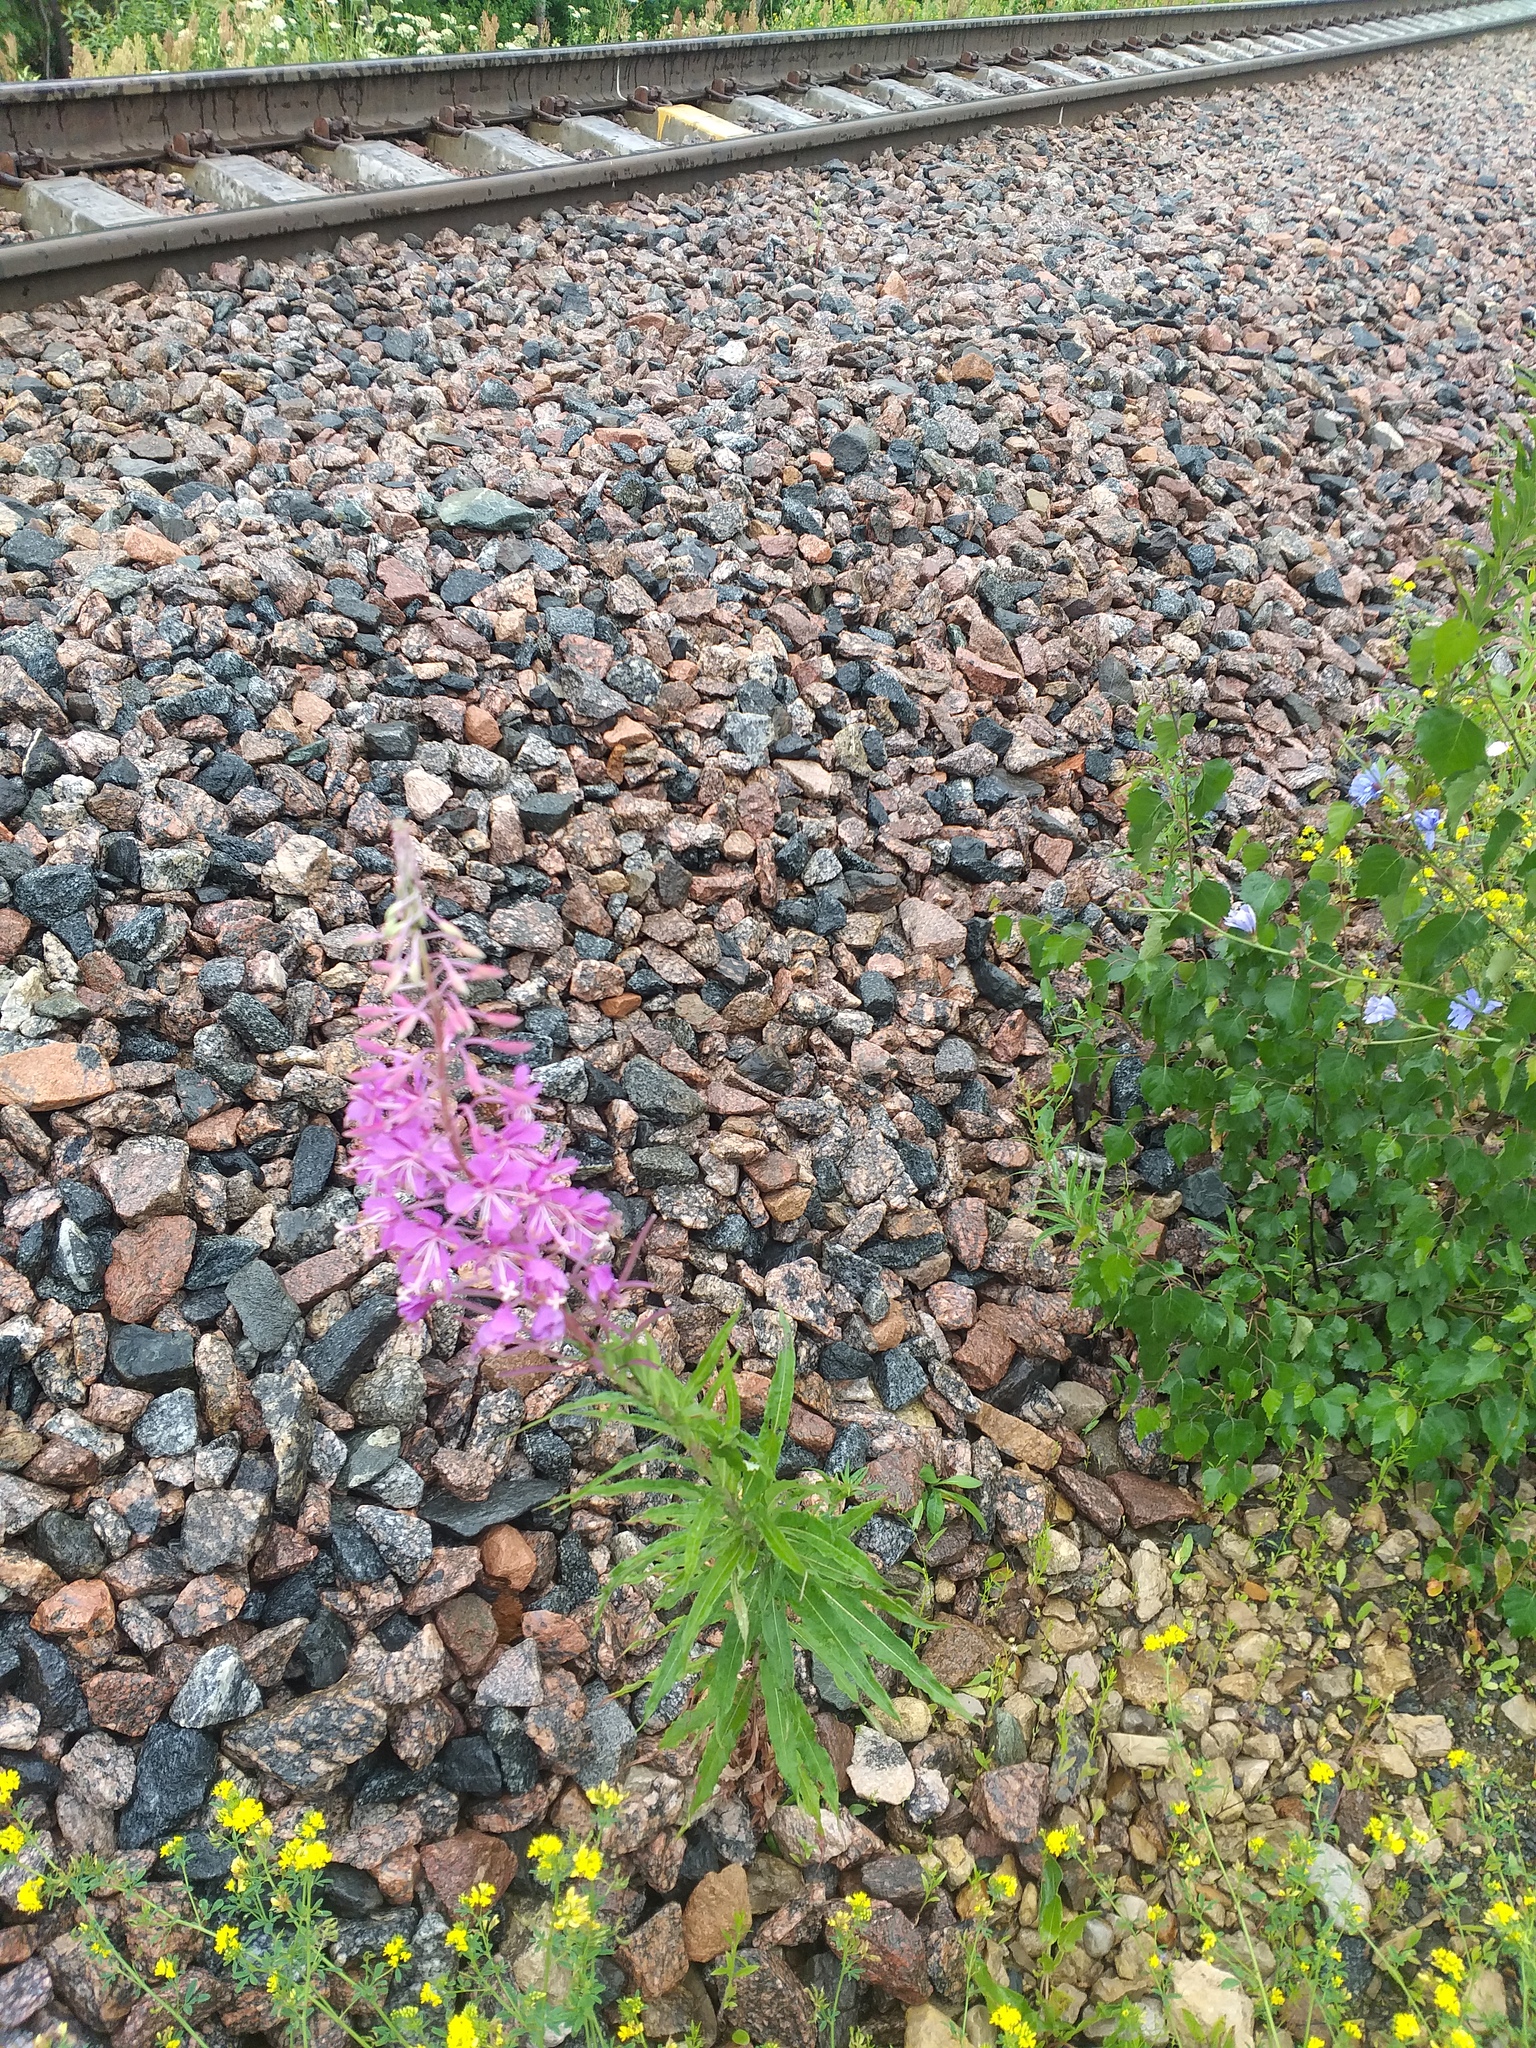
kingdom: Plantae
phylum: Tracheophyta
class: Magnoliopsida
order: Myrtales
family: Onagraceae
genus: Chamaenerion
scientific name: Chamaenerion angustifolium
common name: Fireweed
